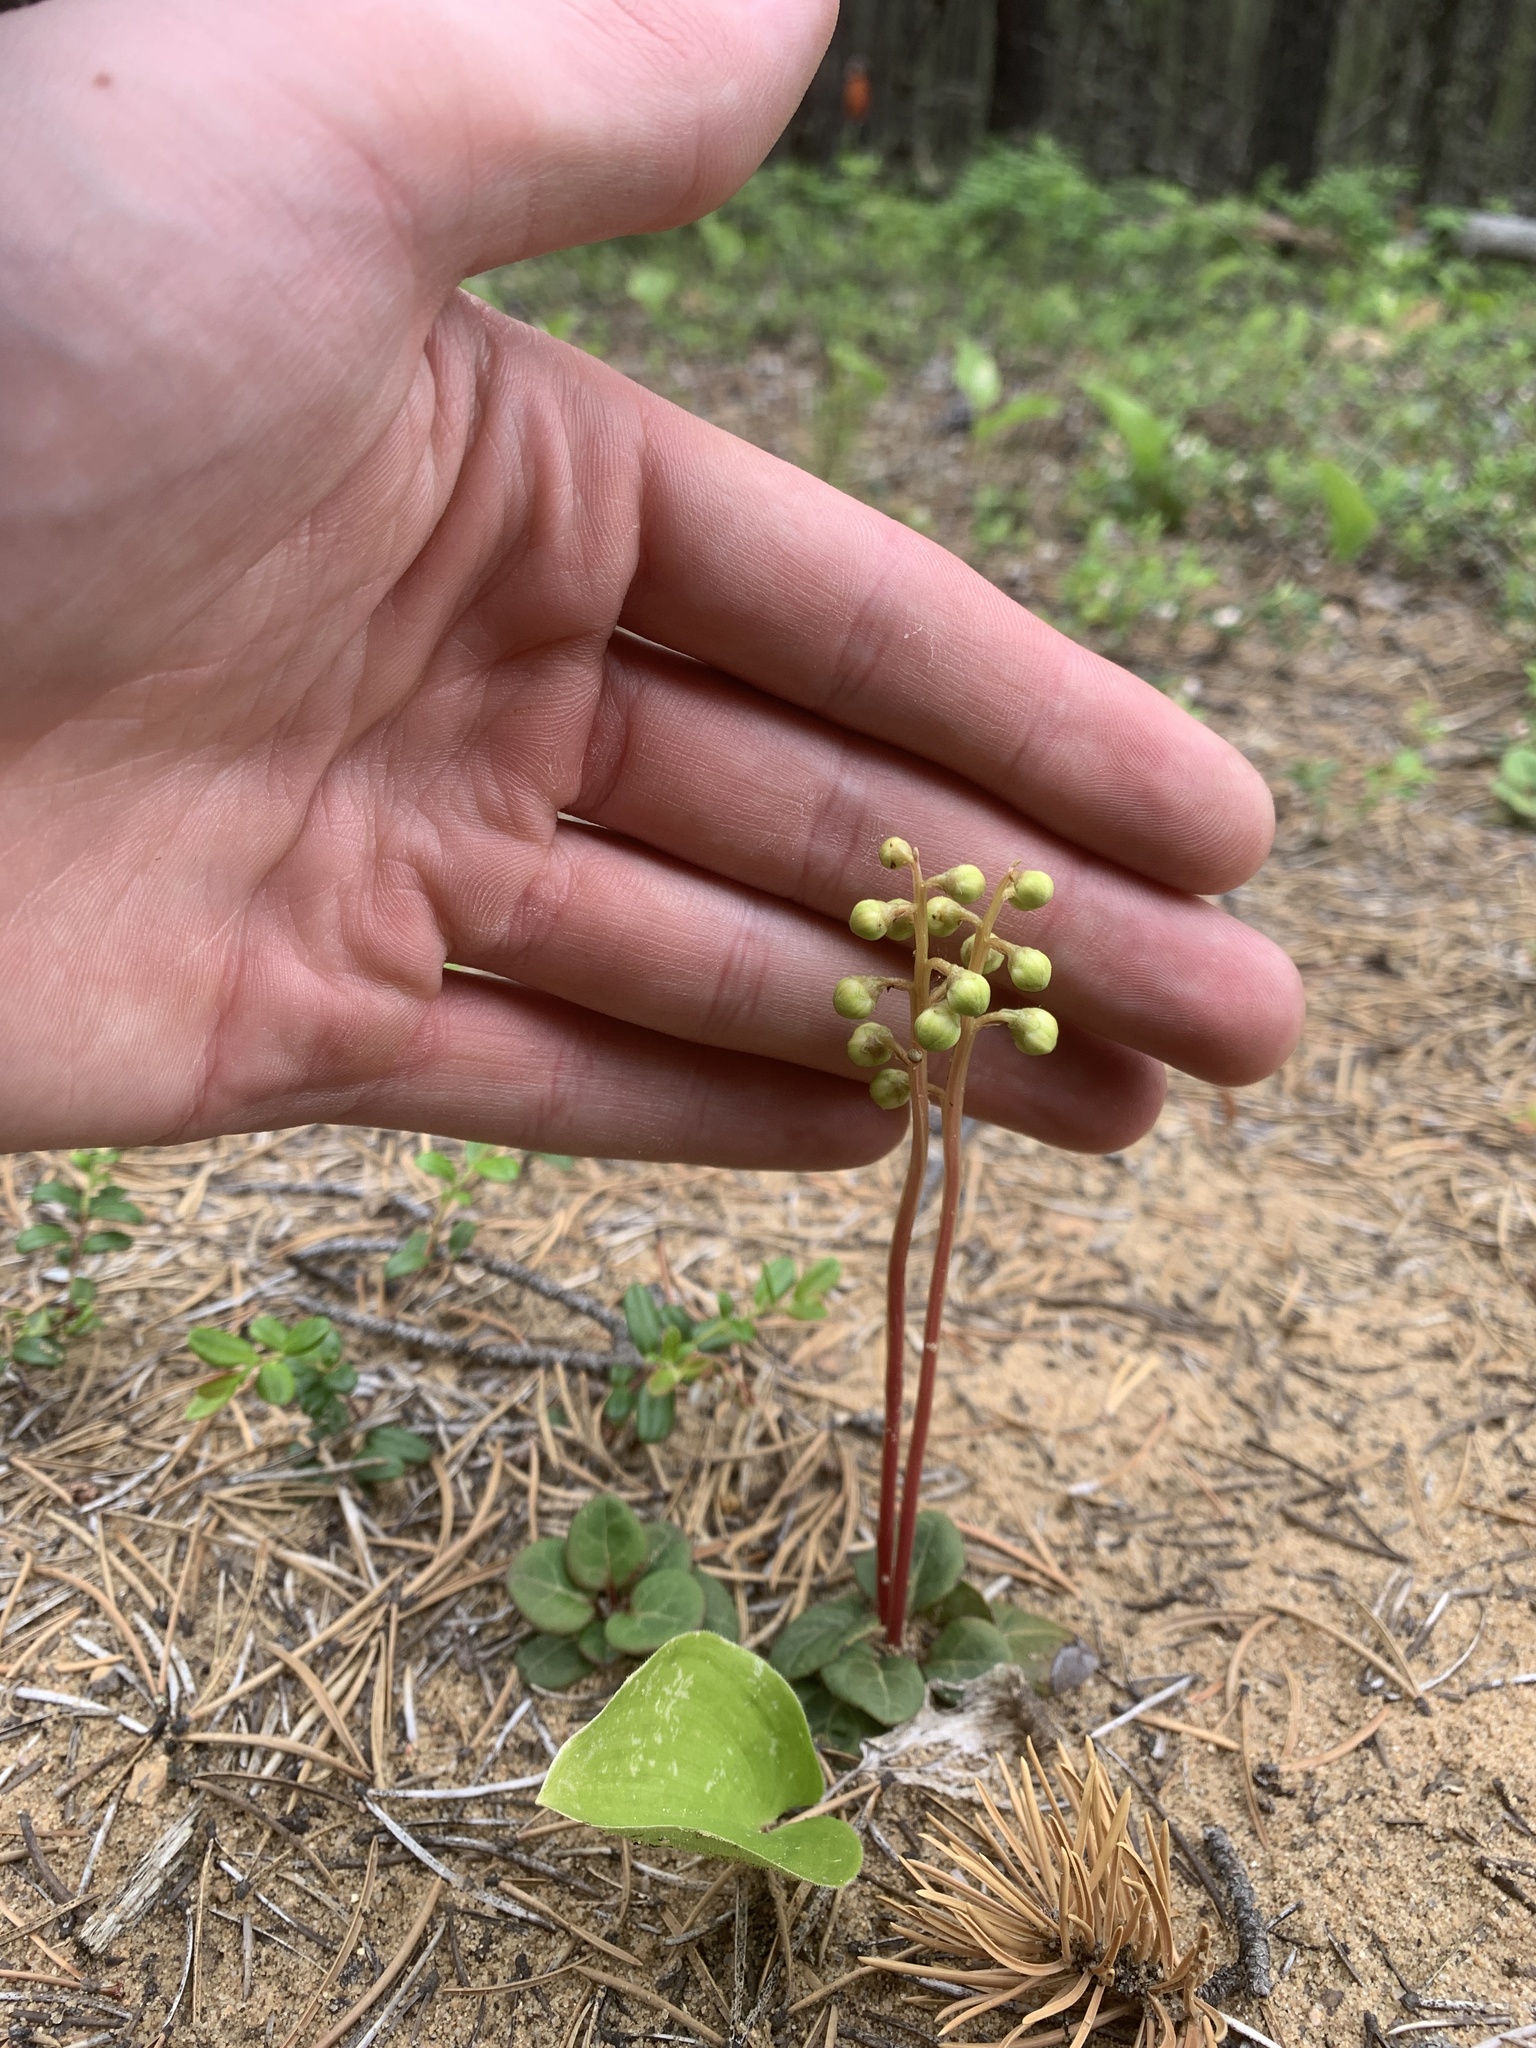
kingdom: Plantae
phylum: Tracheophyta
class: Magnoliopsida
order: Ericales
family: Ericaceae
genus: Pyrola
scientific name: Pyrola chlorantha
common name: Green wintergreen
